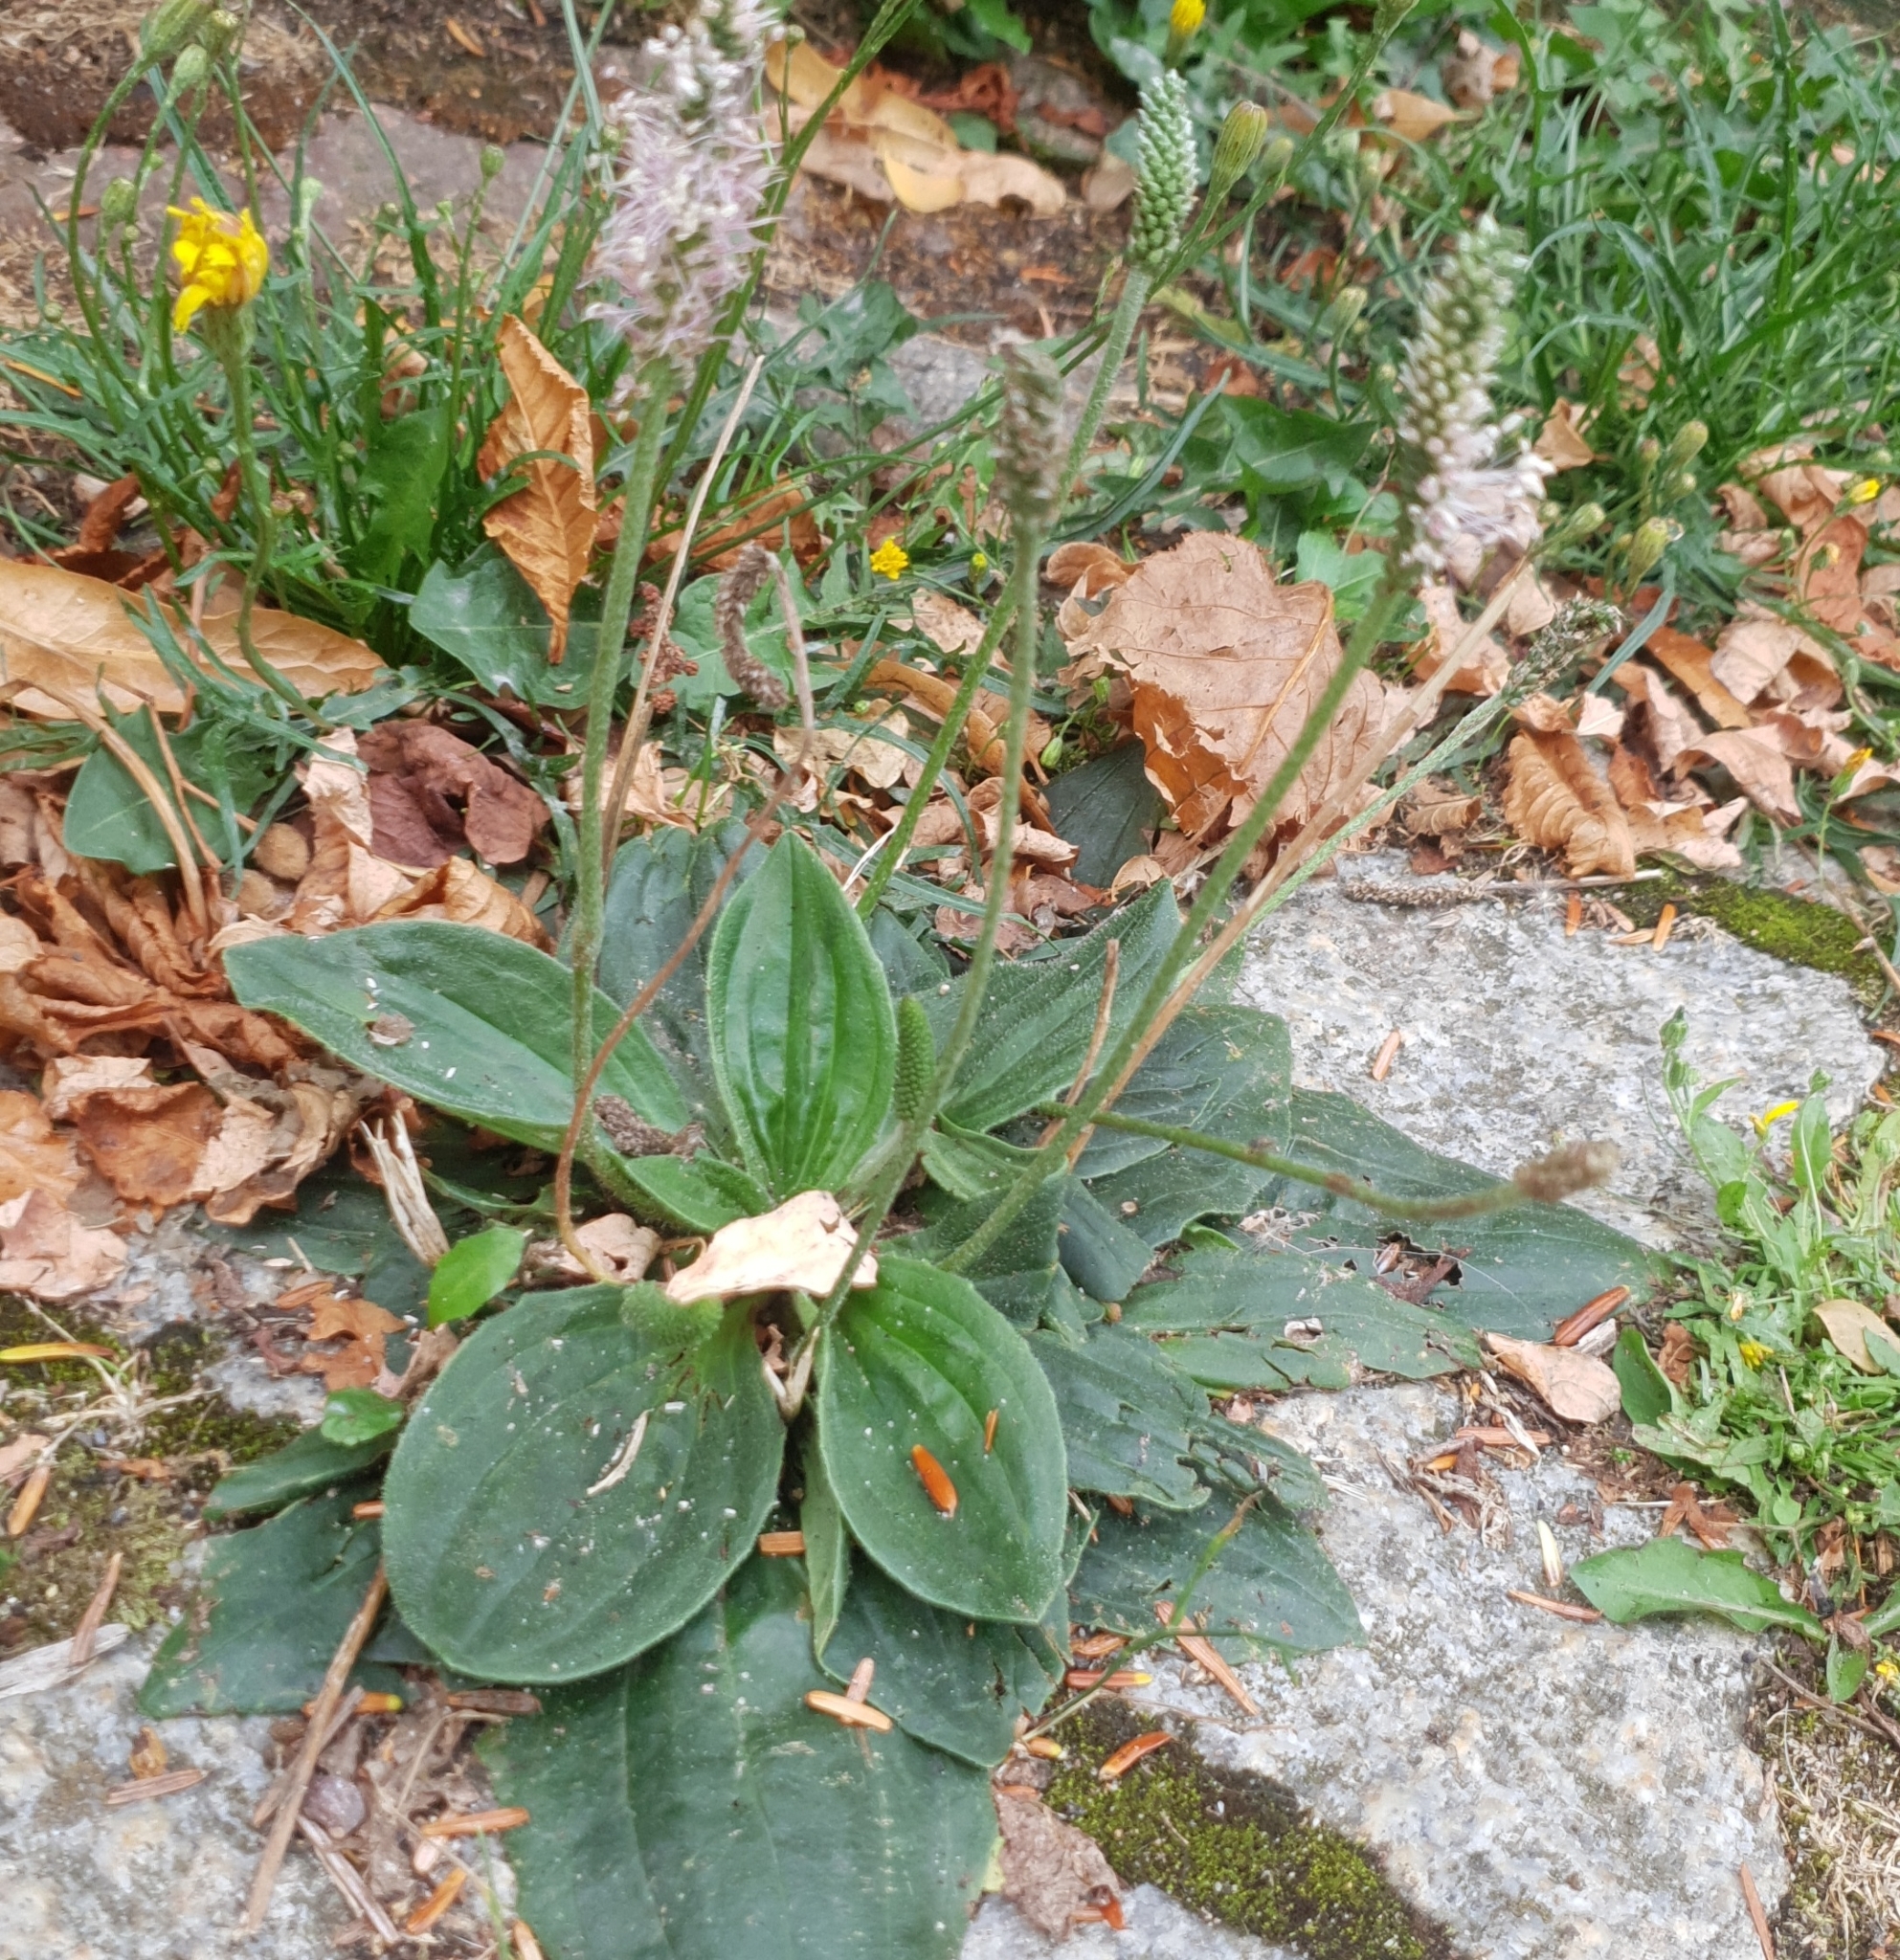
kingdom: Plantae
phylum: Tracheophyta
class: Magnoliopsida
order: Lamiales
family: Plantaginaceae
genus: Plantago
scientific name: Plantago media
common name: Hoary plantain
